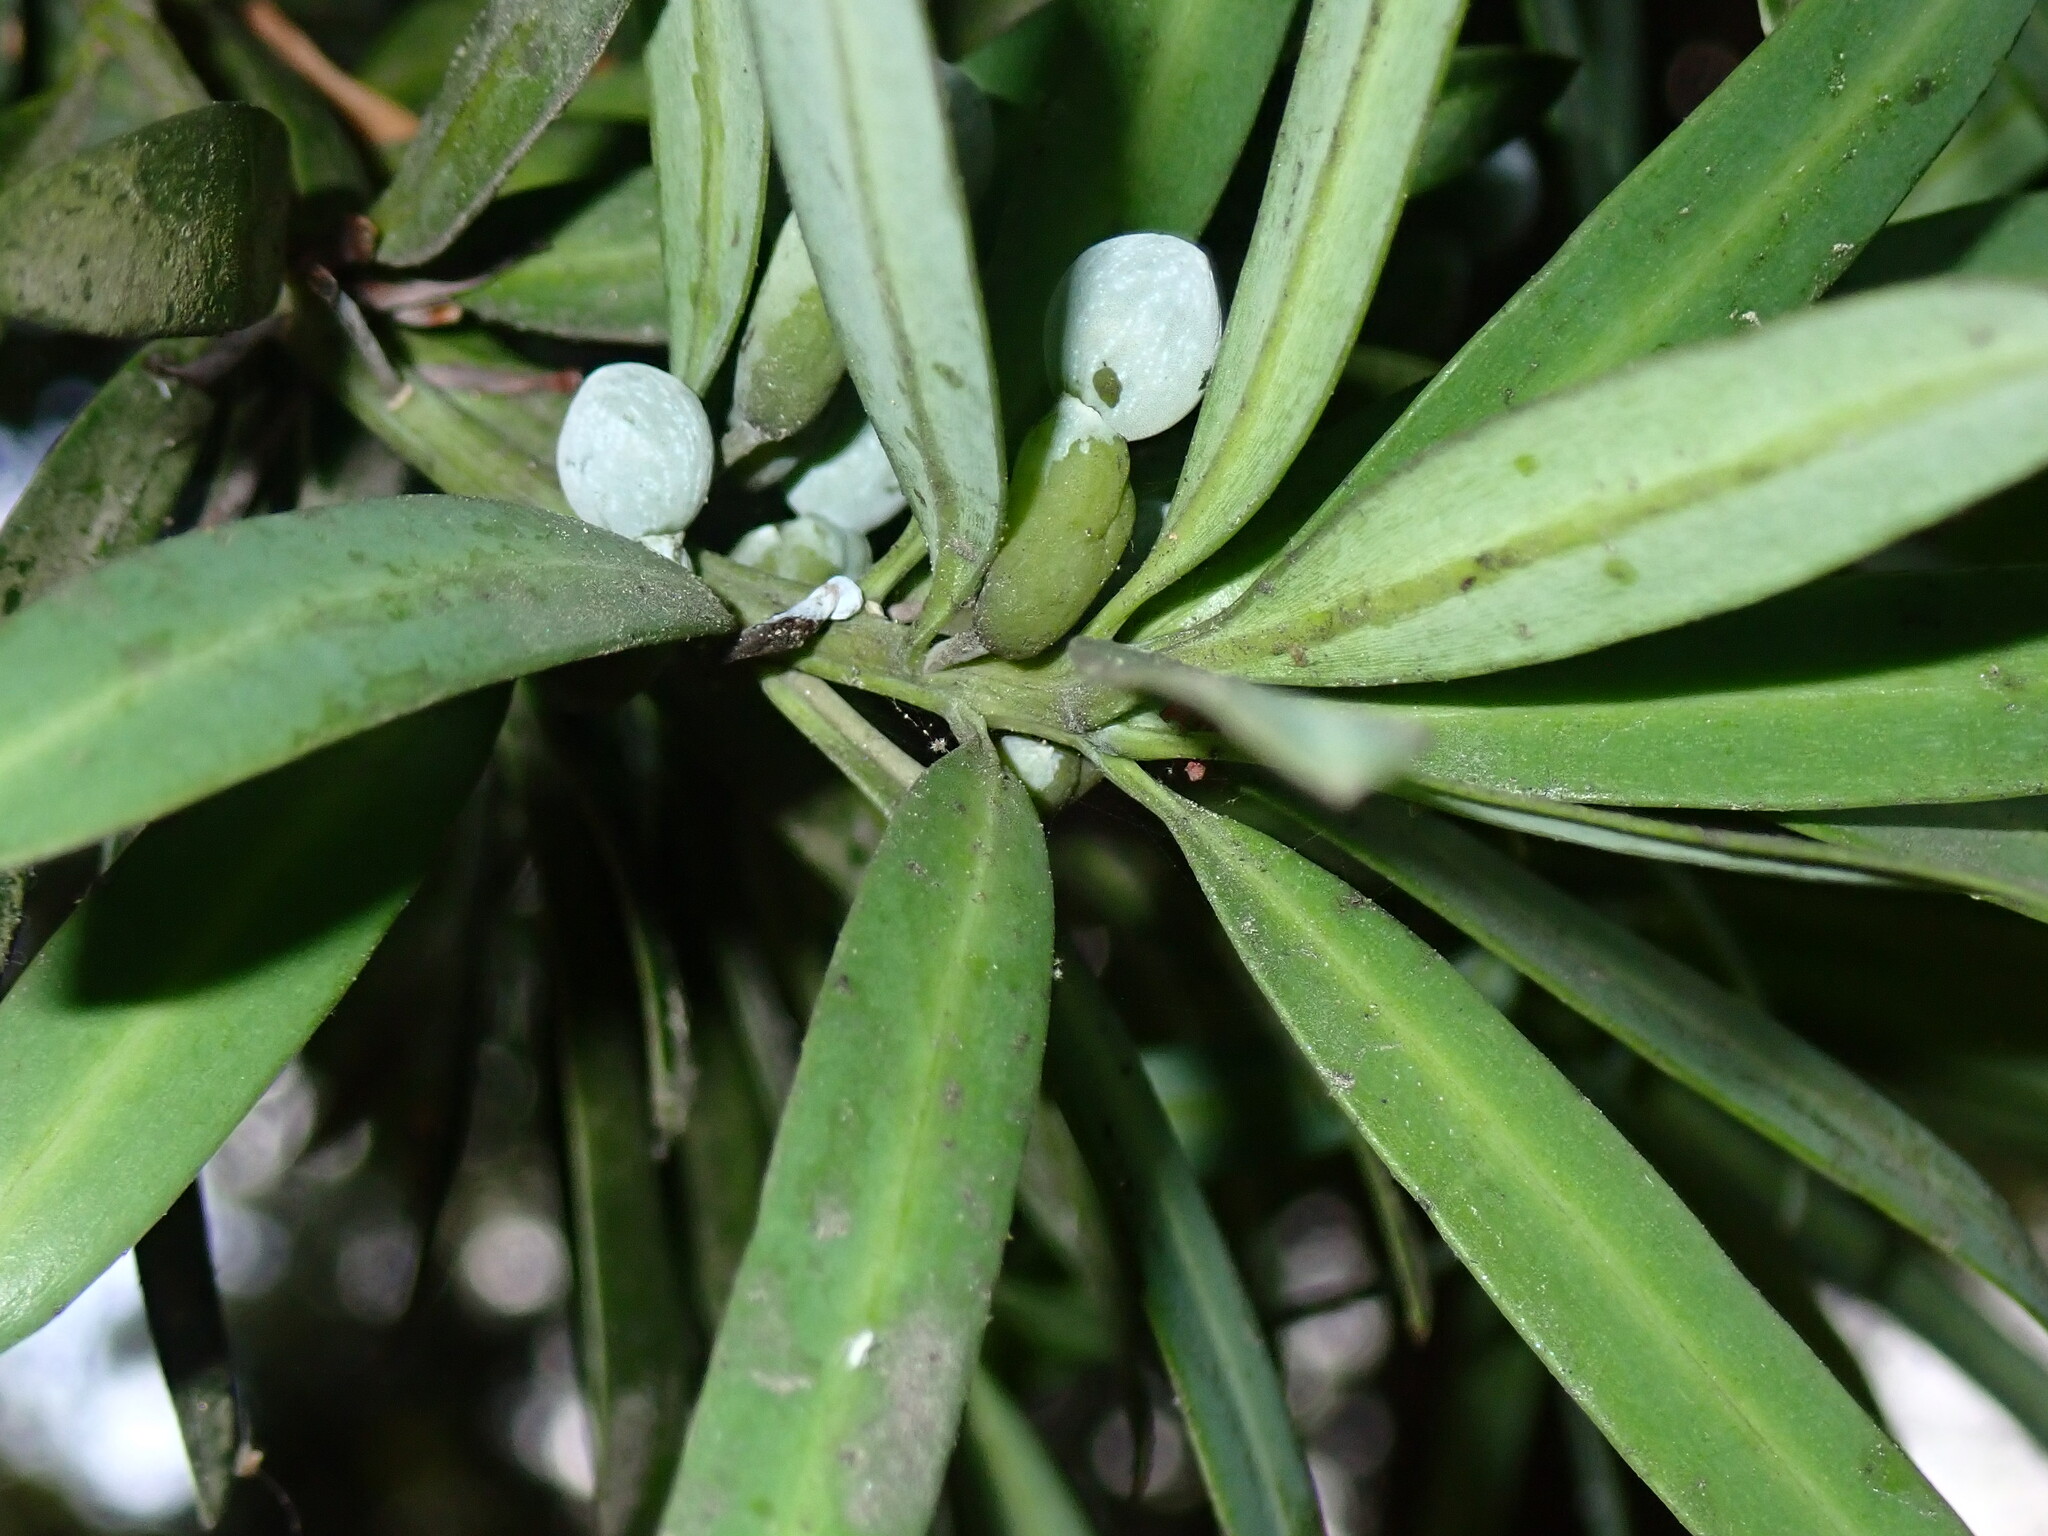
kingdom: Plantae
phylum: Tracheophyta
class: Pinopsida
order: Pinales
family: Podocarpaceae
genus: Podocarpus
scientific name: Podocarpus latifolius
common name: True yellowwood
